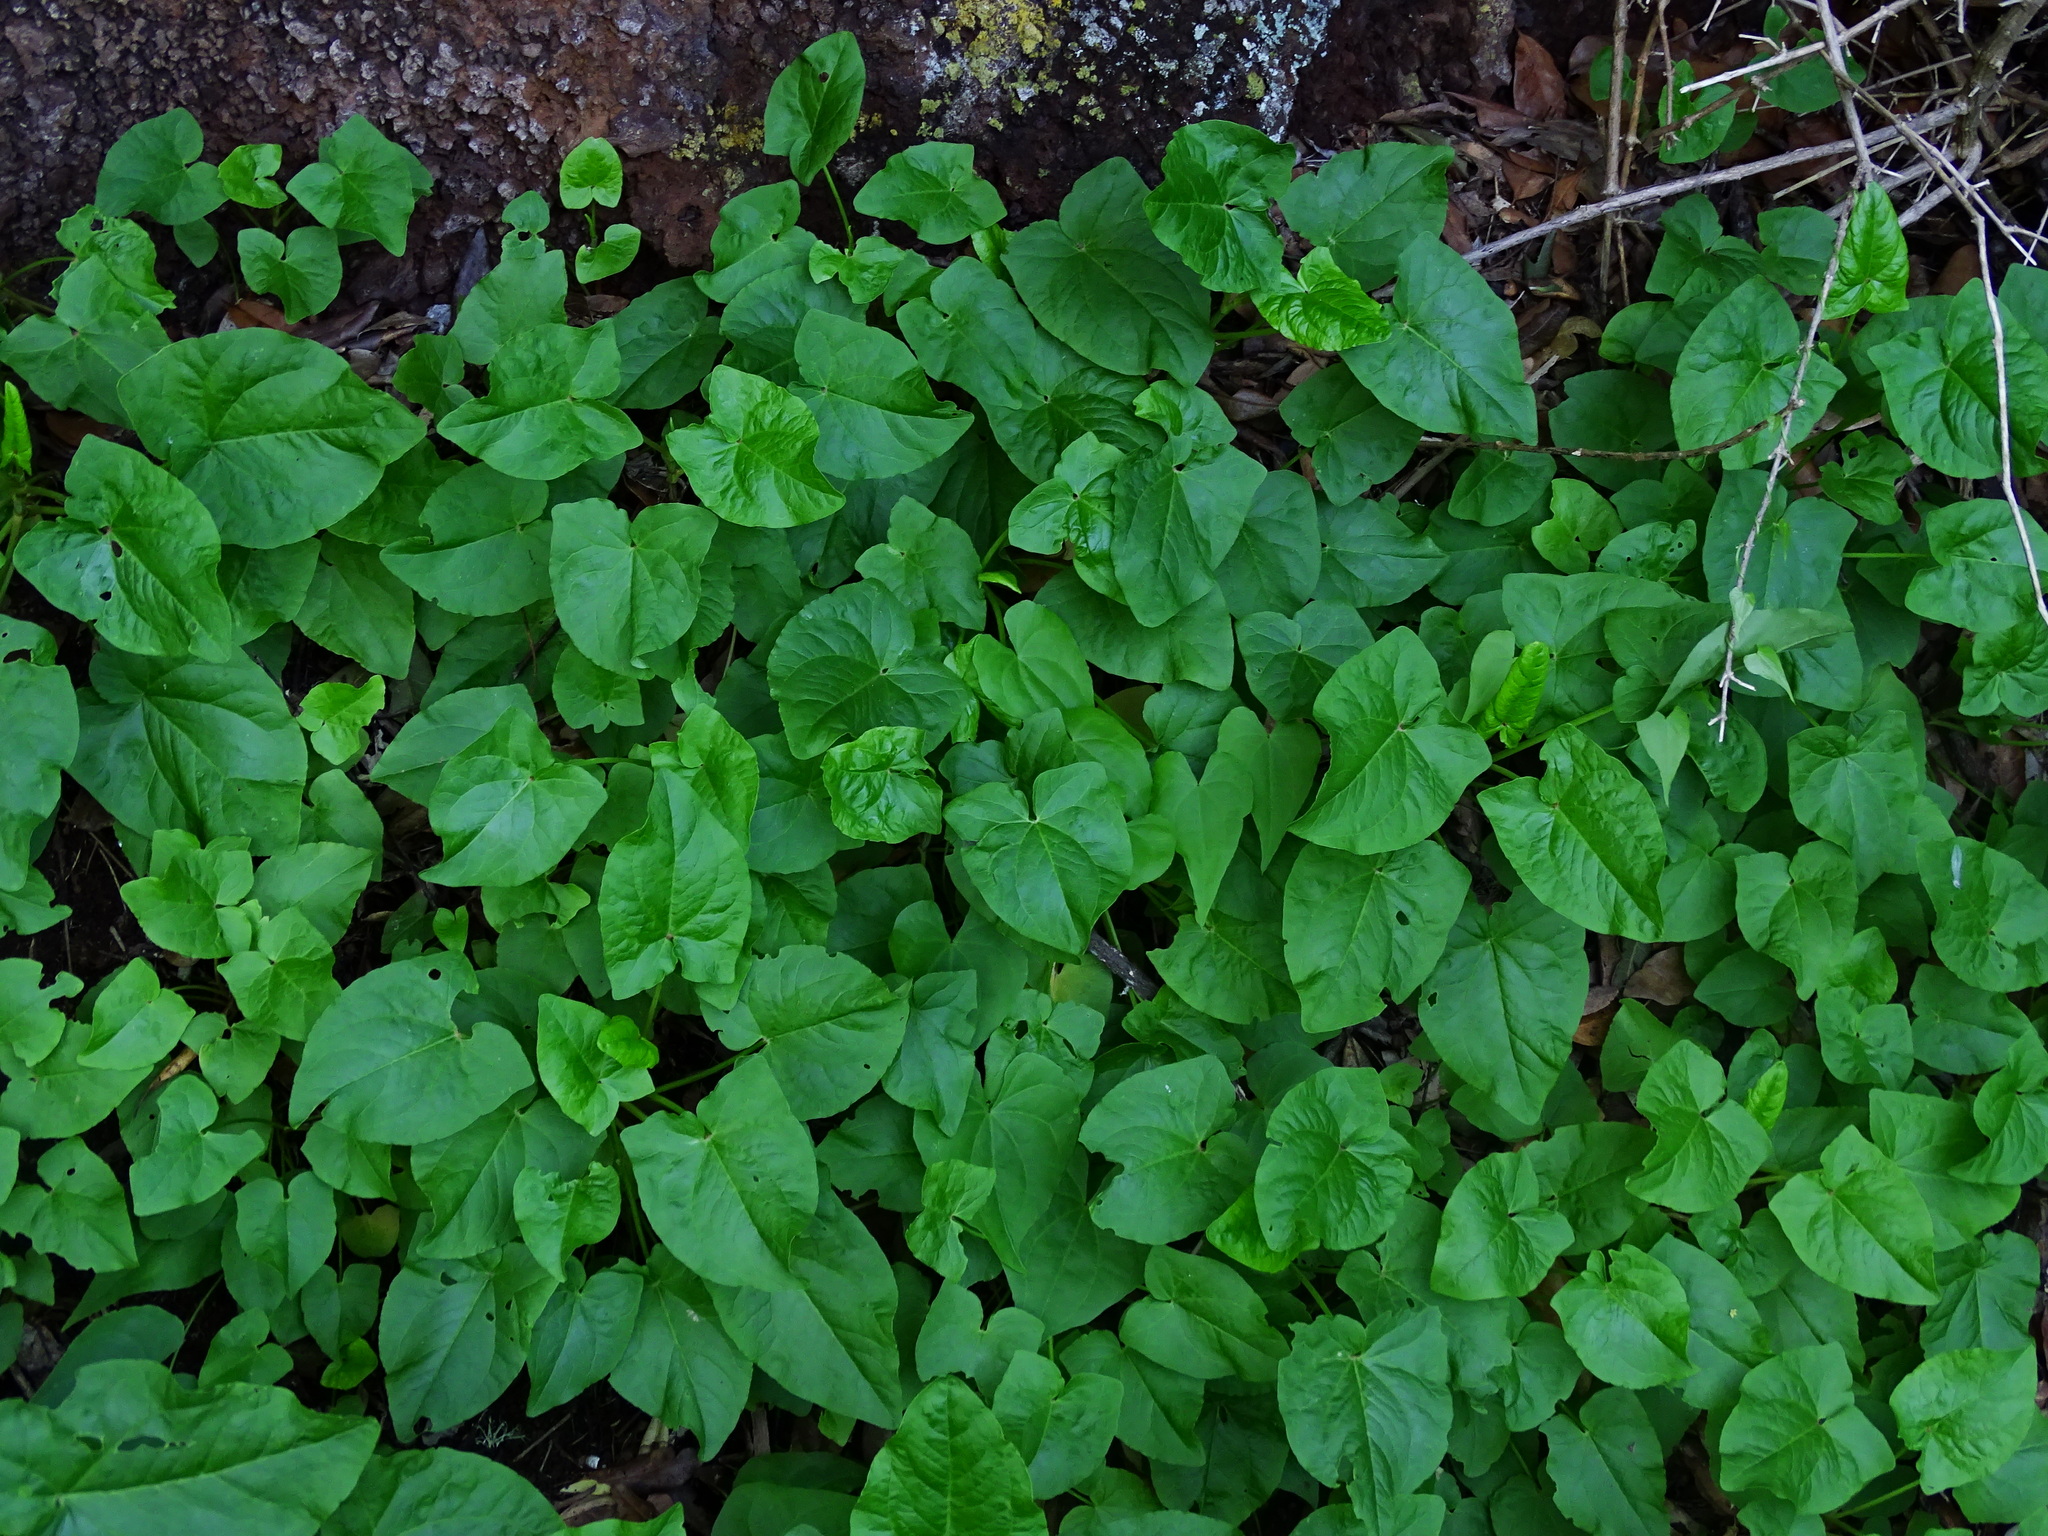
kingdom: Plantae
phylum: Tracheophyta
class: Magnoliopsida
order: Caryophyllales
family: Polygonaceae
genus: Rumex
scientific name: Rumex maderensis
